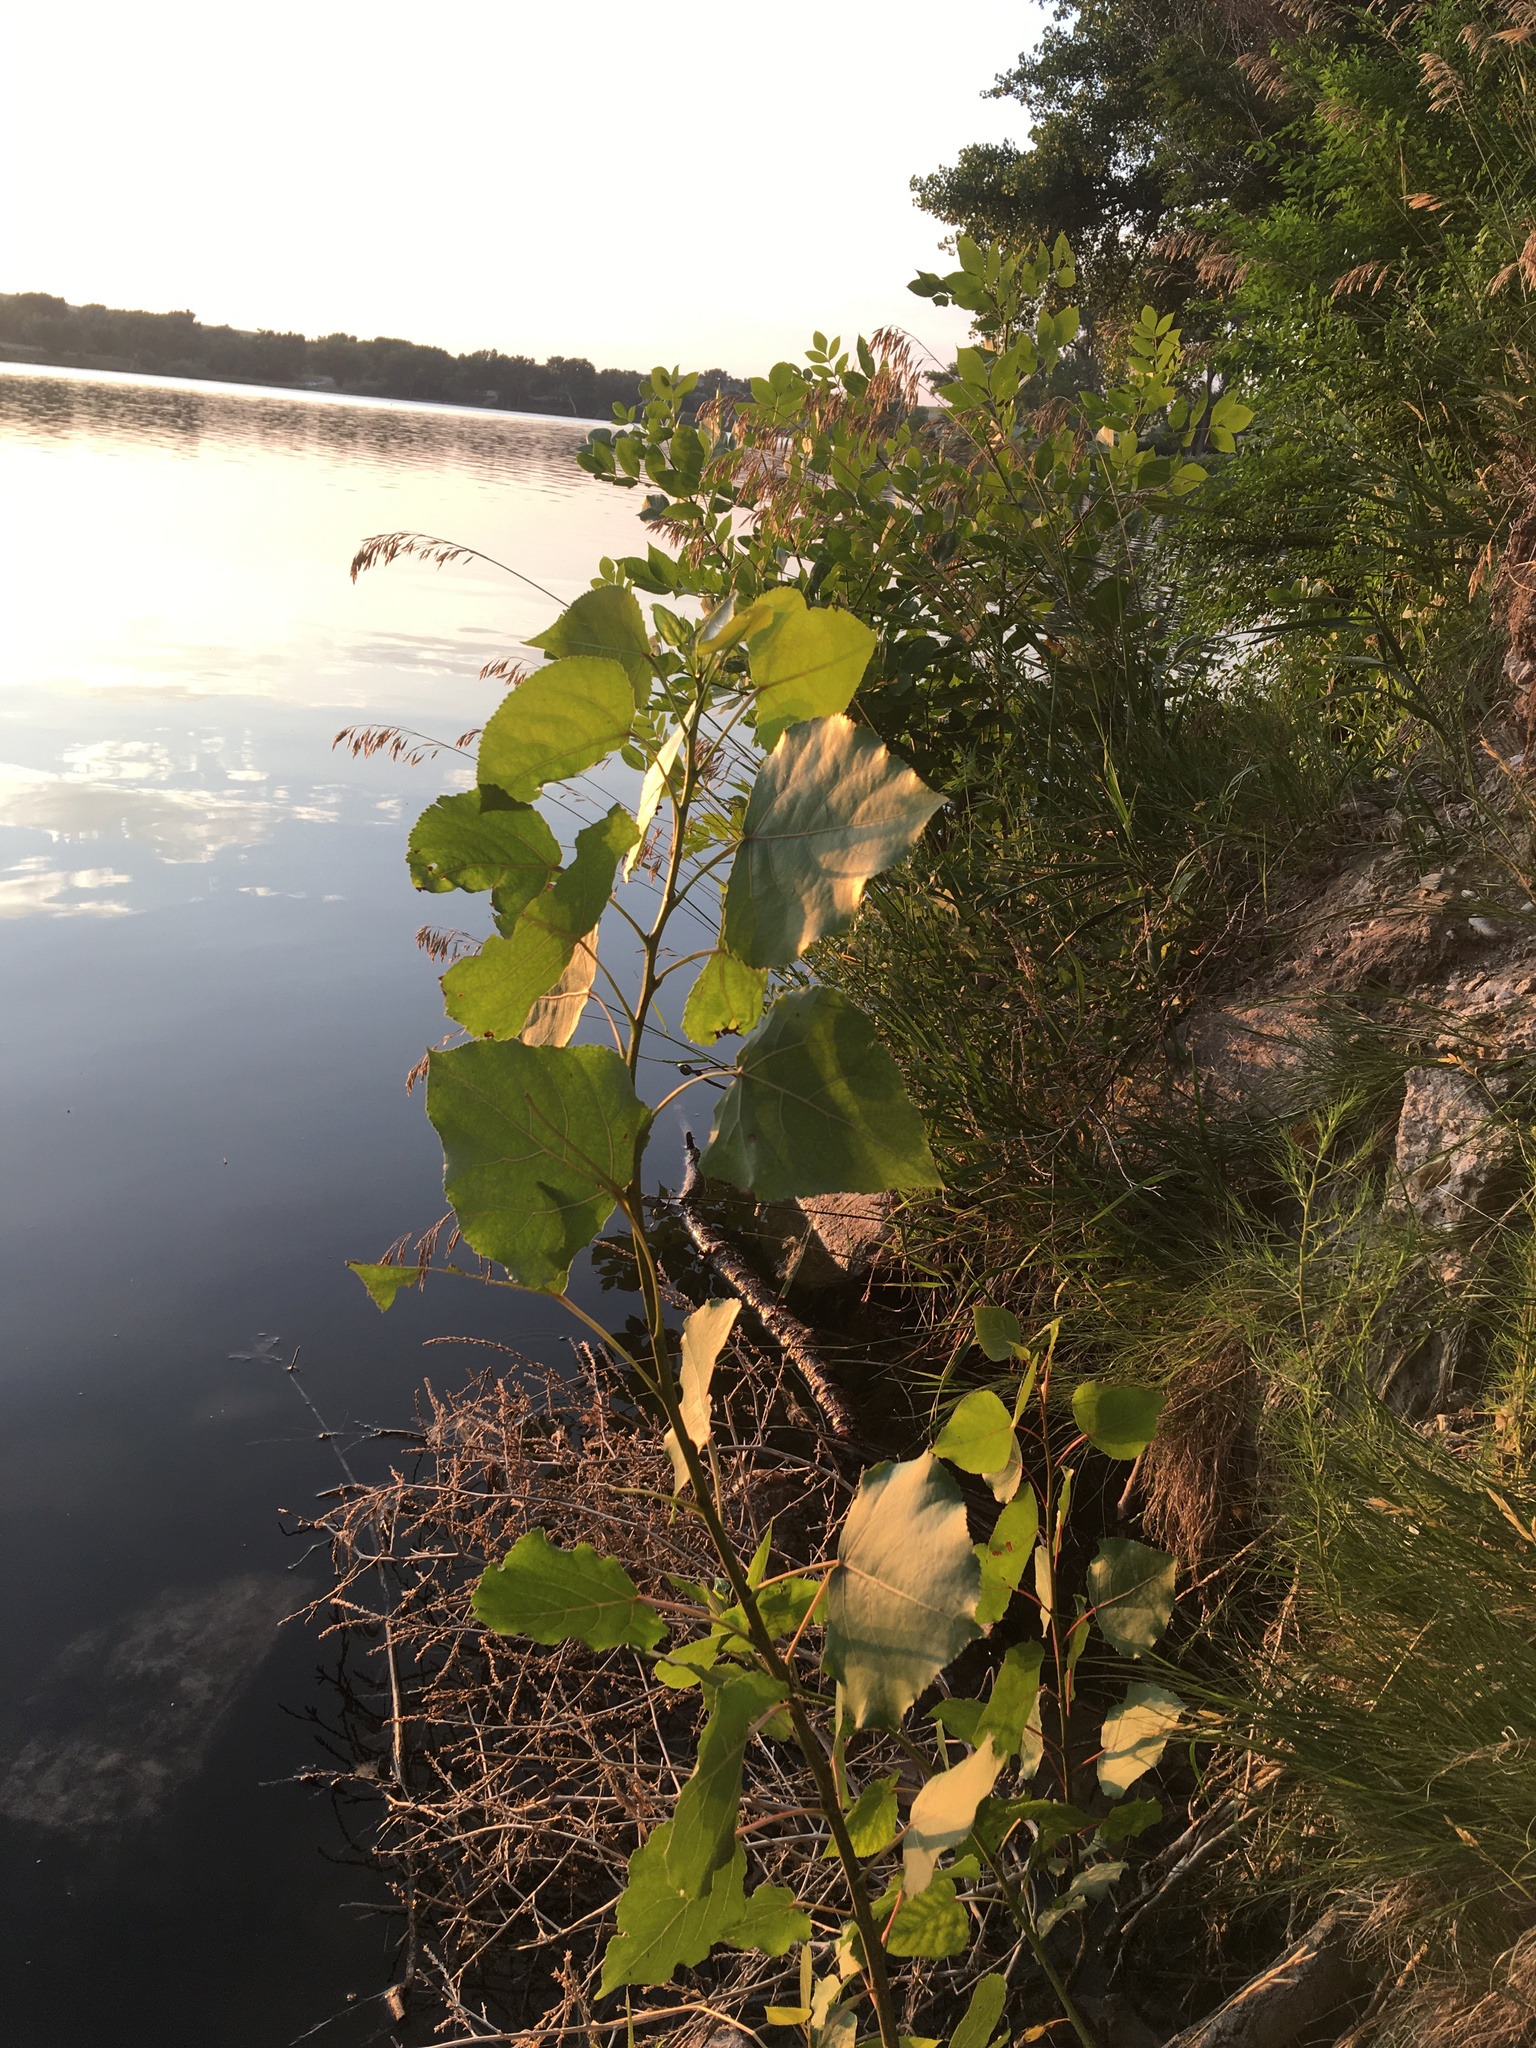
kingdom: Plantae
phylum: Tracheophyta
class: Magnoliopsida
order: Malpighiales
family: Salicaceae
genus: Populus
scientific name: Populus deltoides
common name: Eastern cottonwood
